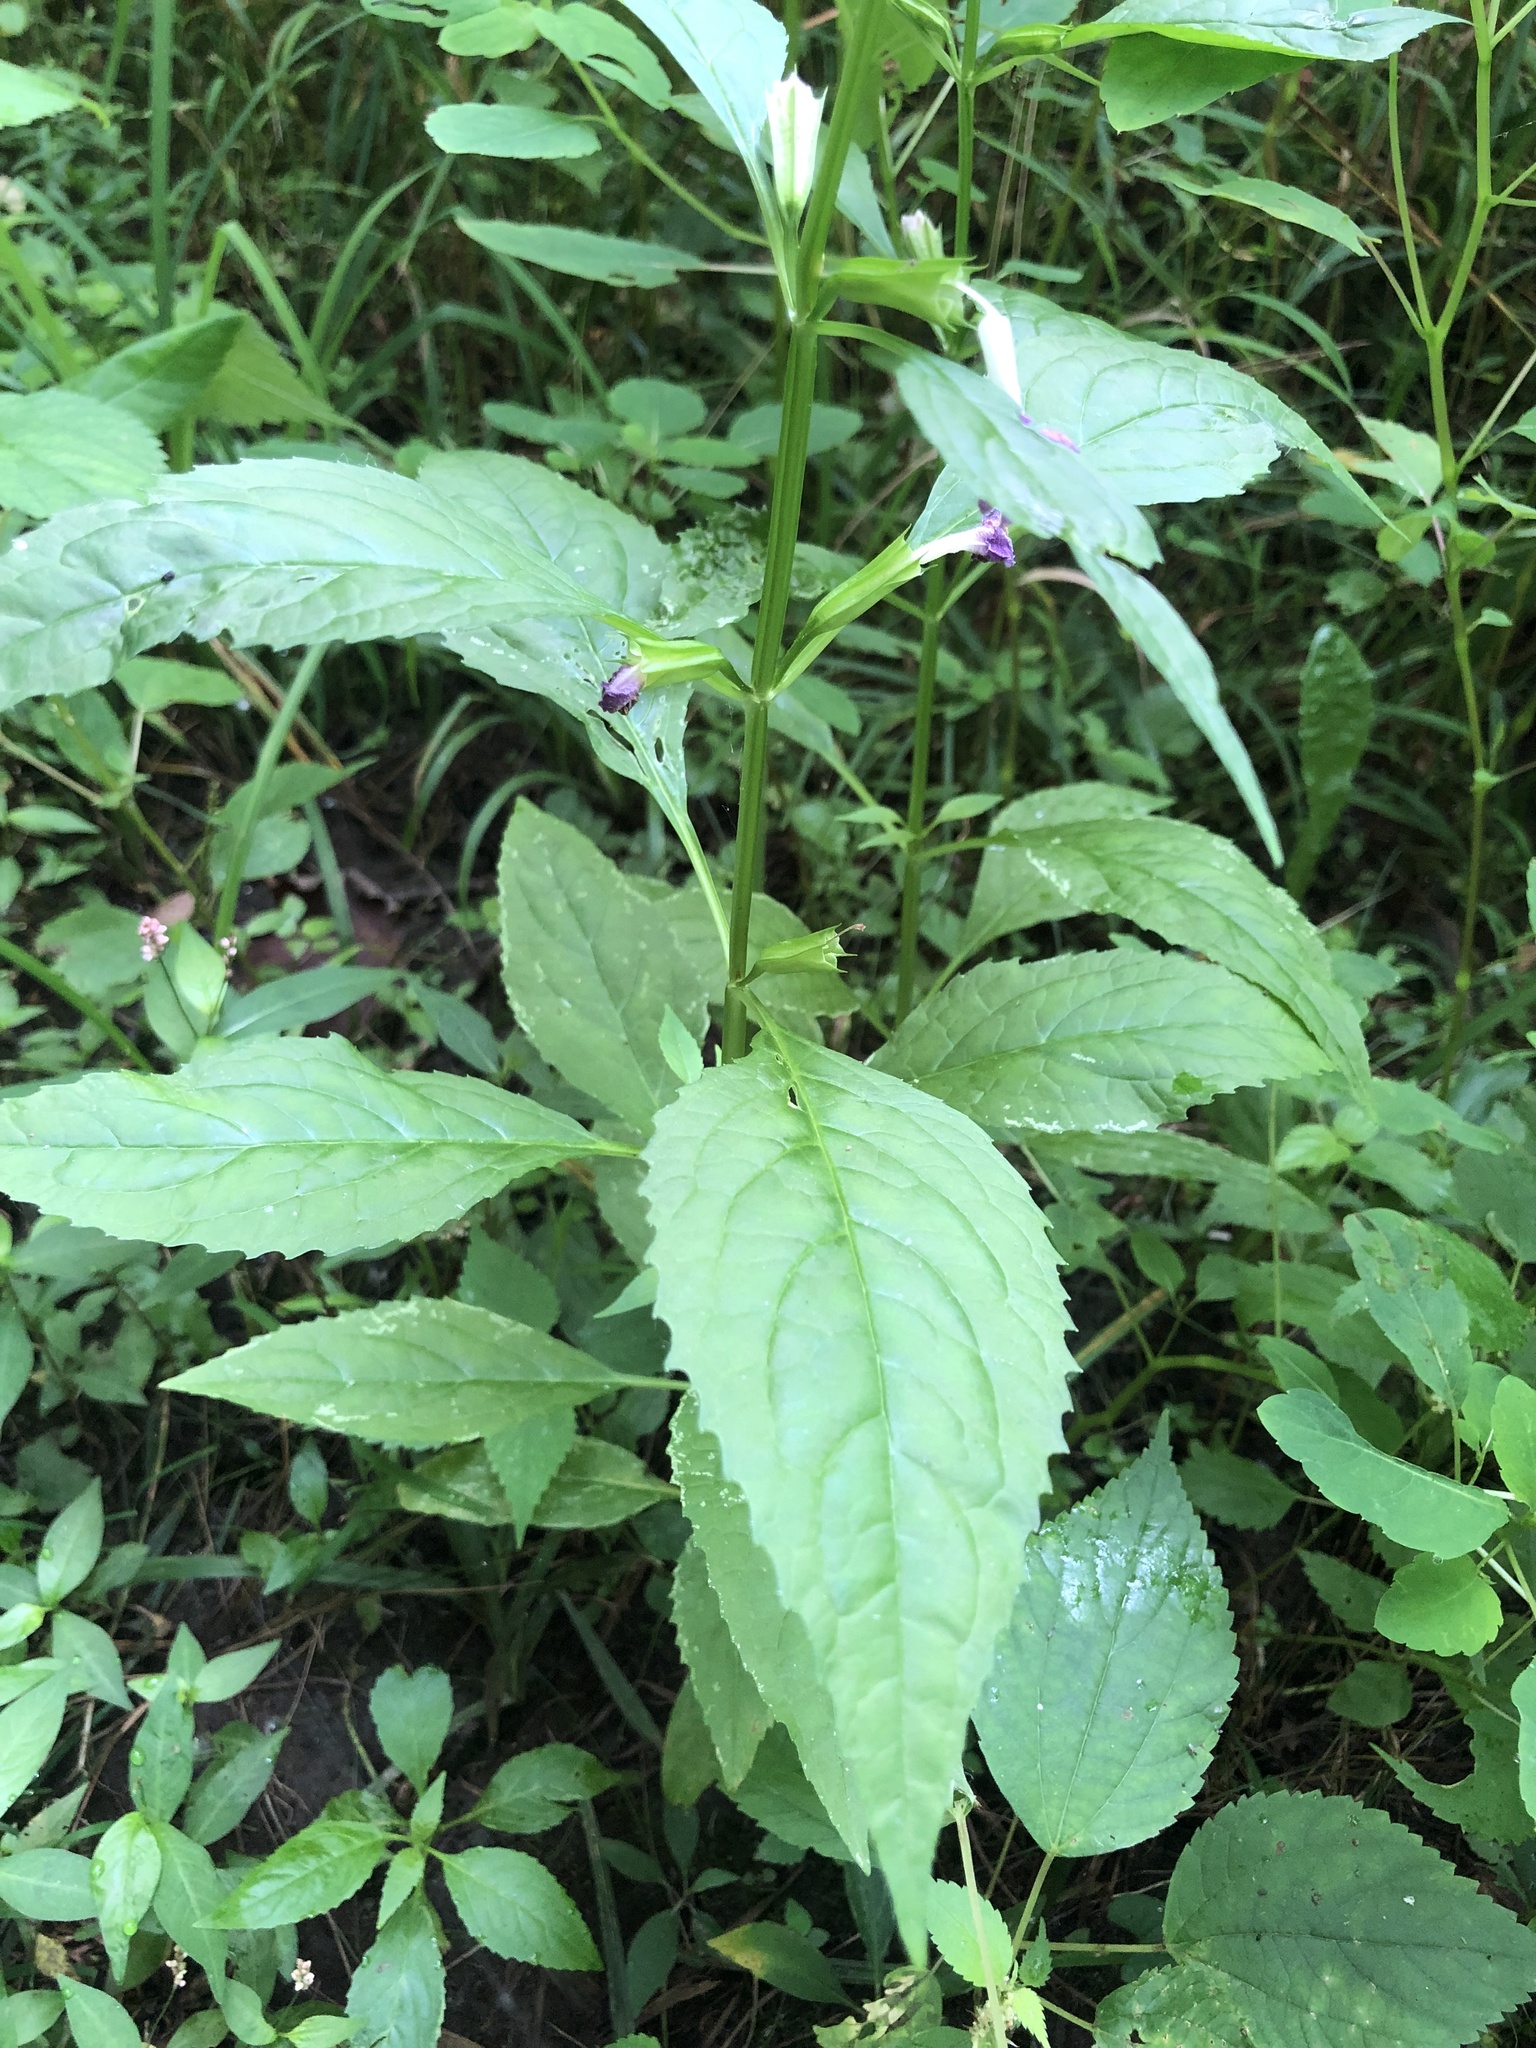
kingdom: Plantae
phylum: Tracheophyta
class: Magnoliopsida
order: Lamiales
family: Phrymaceae
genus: Mimulus
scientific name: Mimulus alatus
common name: Sharp-wing monkey-flower
